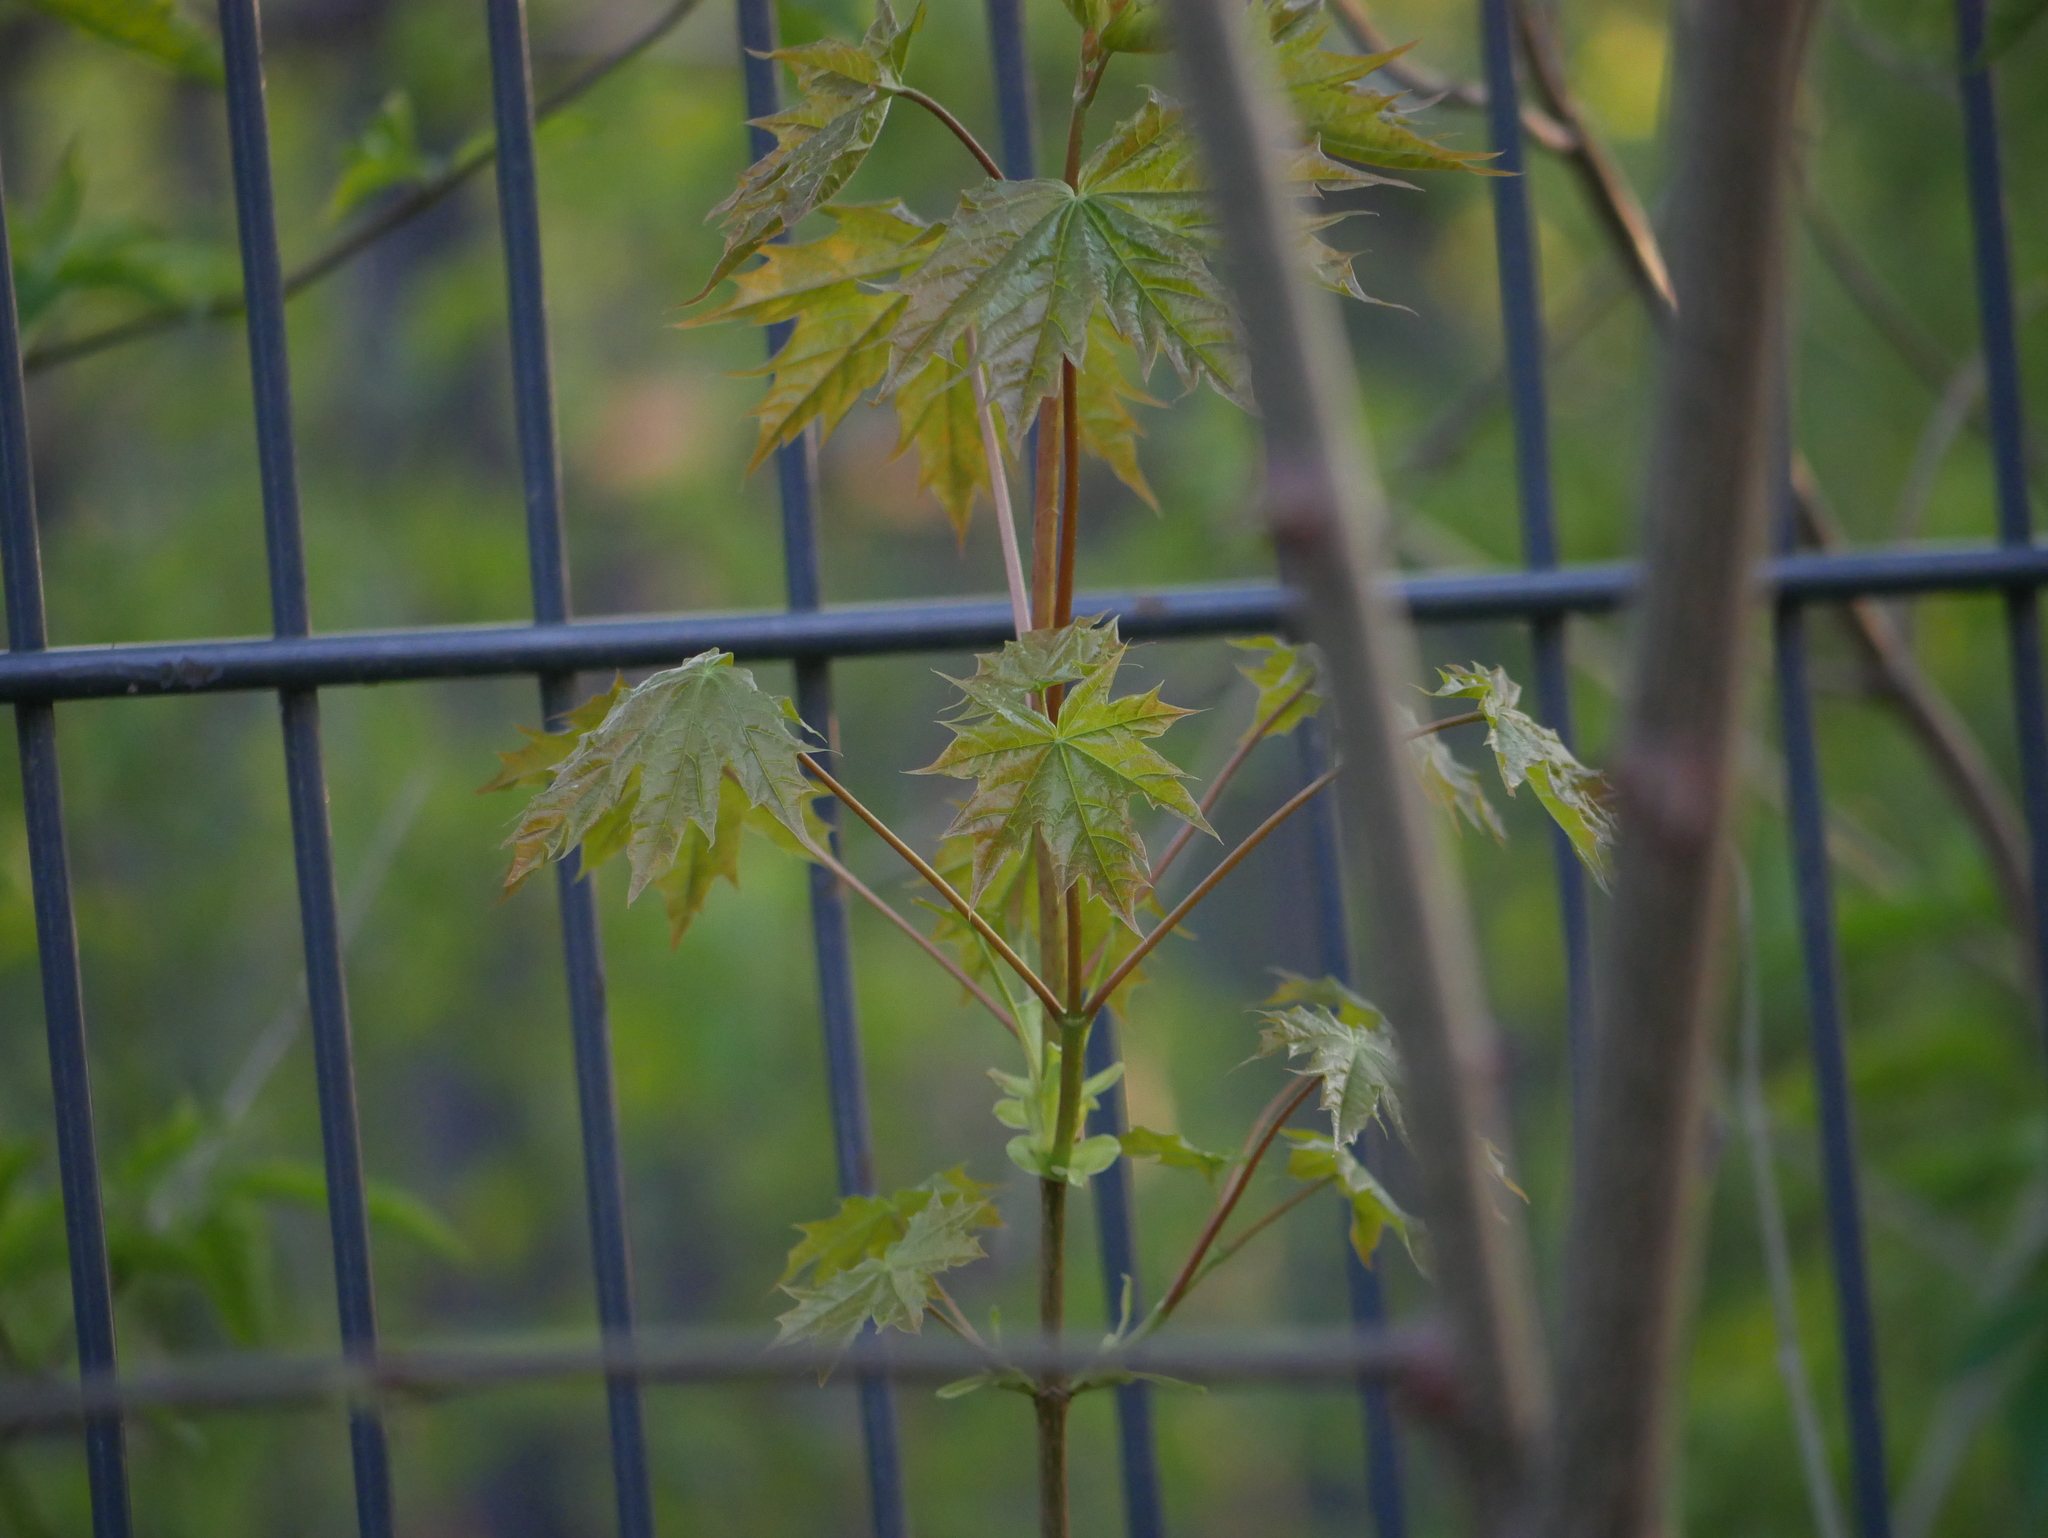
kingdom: Plantae
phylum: Tracheophyta
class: Magnoliopsida
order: Sapindales
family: Sapindaceae
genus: Acer
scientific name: Acer platanoides
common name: Norway maple
